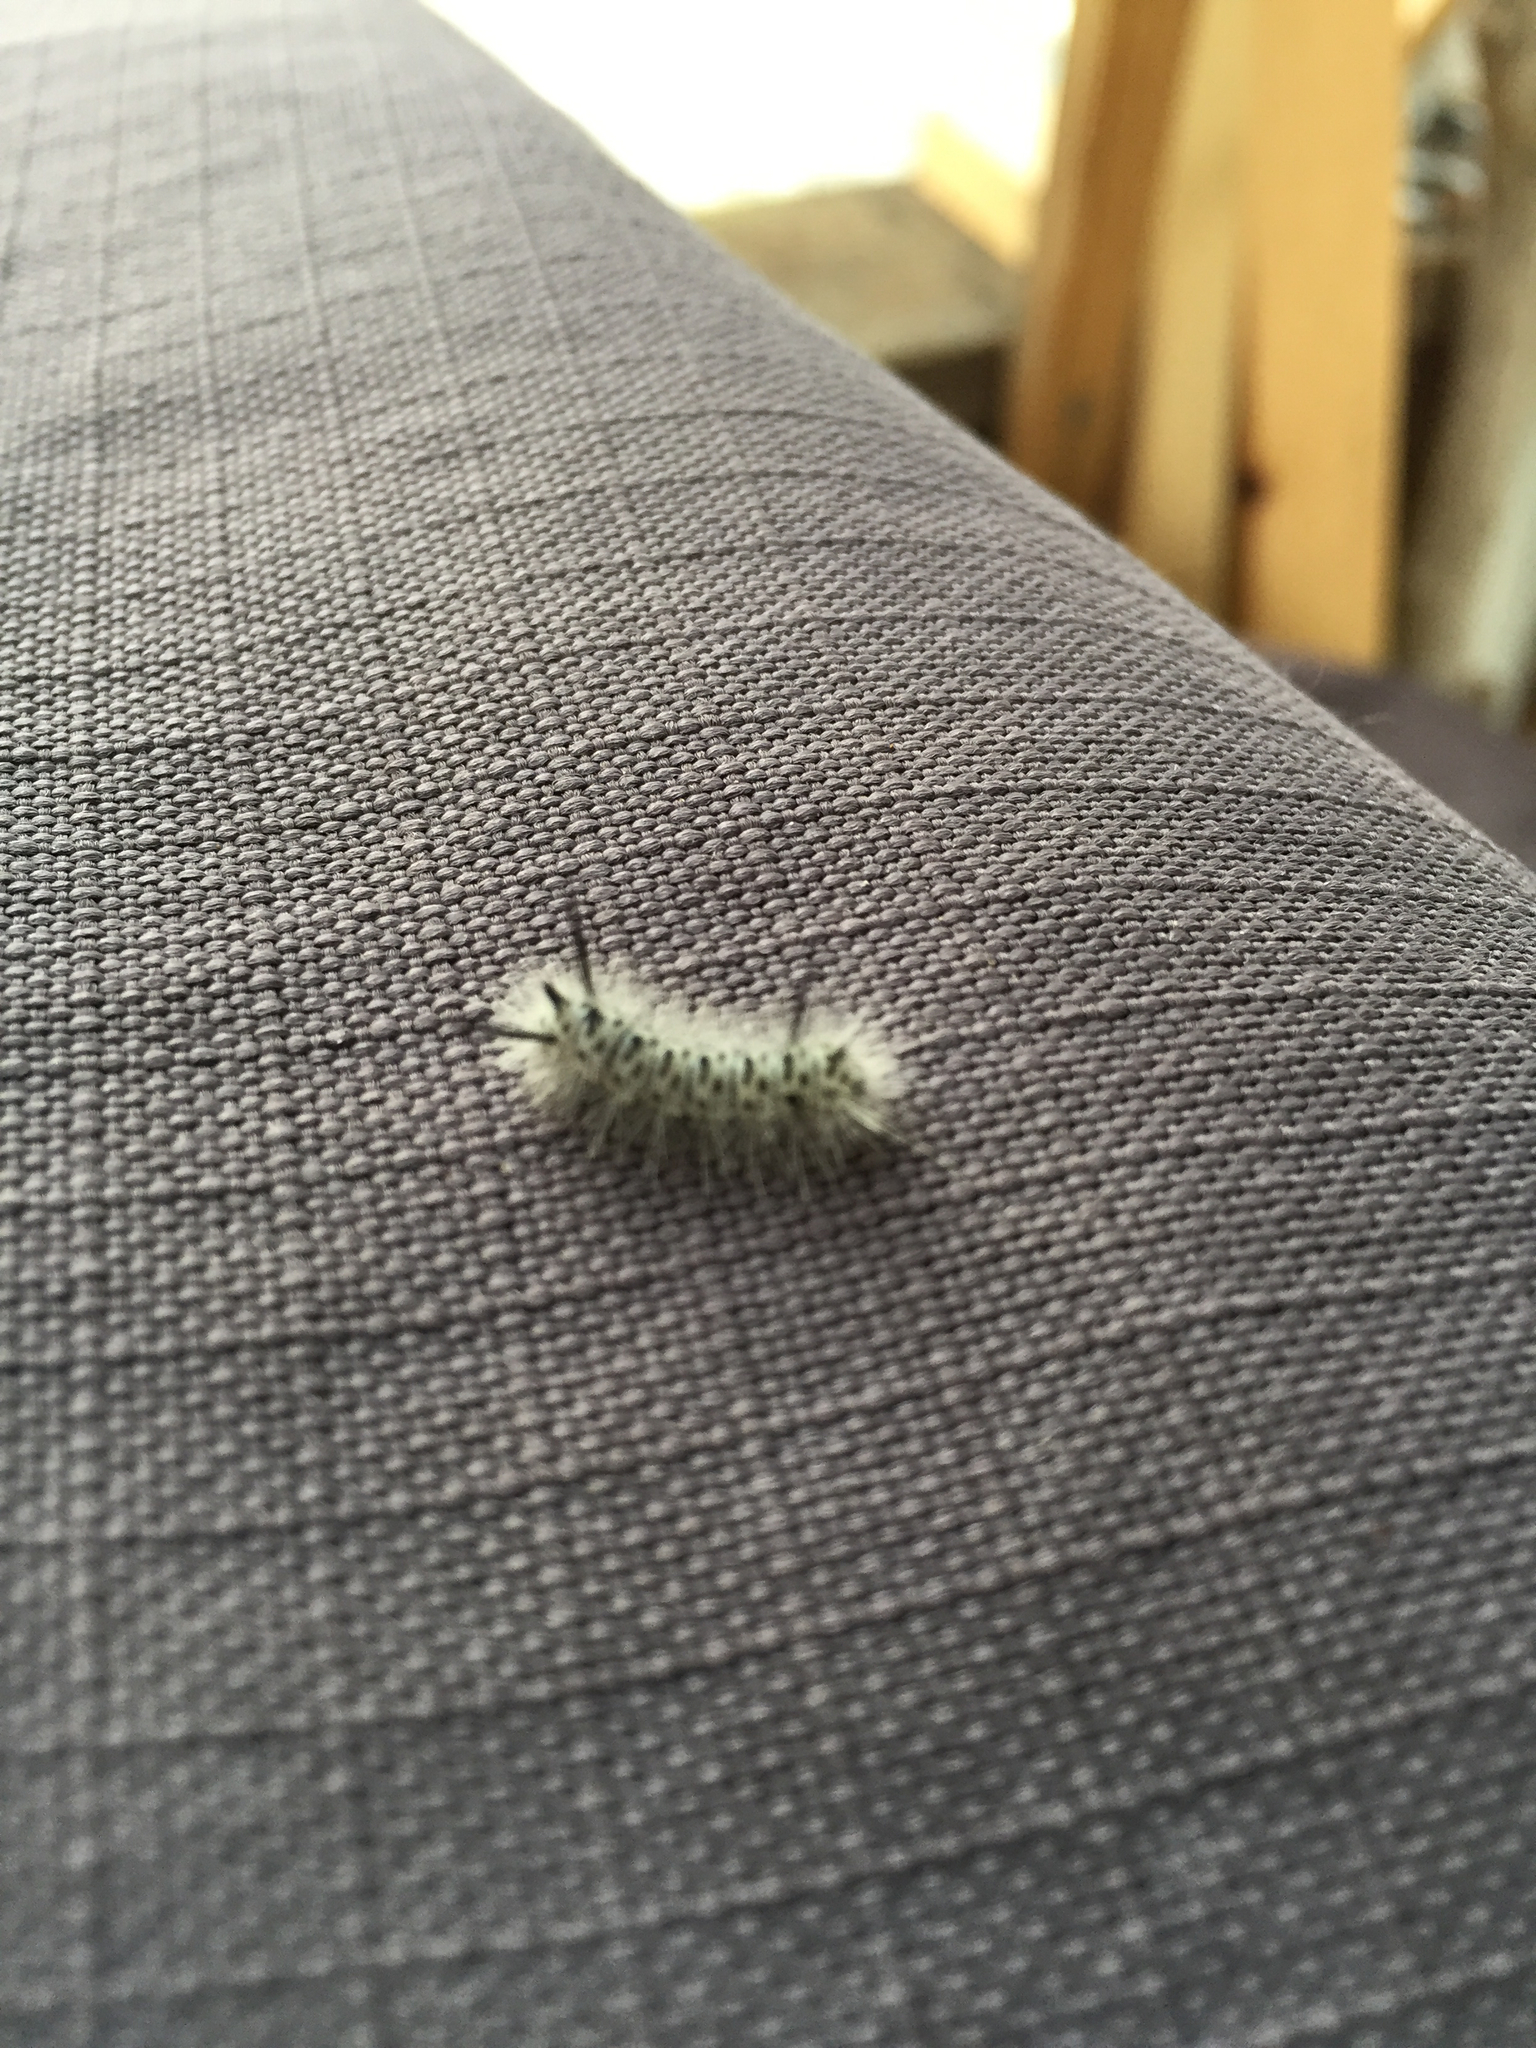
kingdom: Animalia
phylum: Arthropoda
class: Insecta
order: Lepidoptera
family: Erebidae
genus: Lophocampa
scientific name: Lophocampa caryae
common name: Hickory tussock moth
